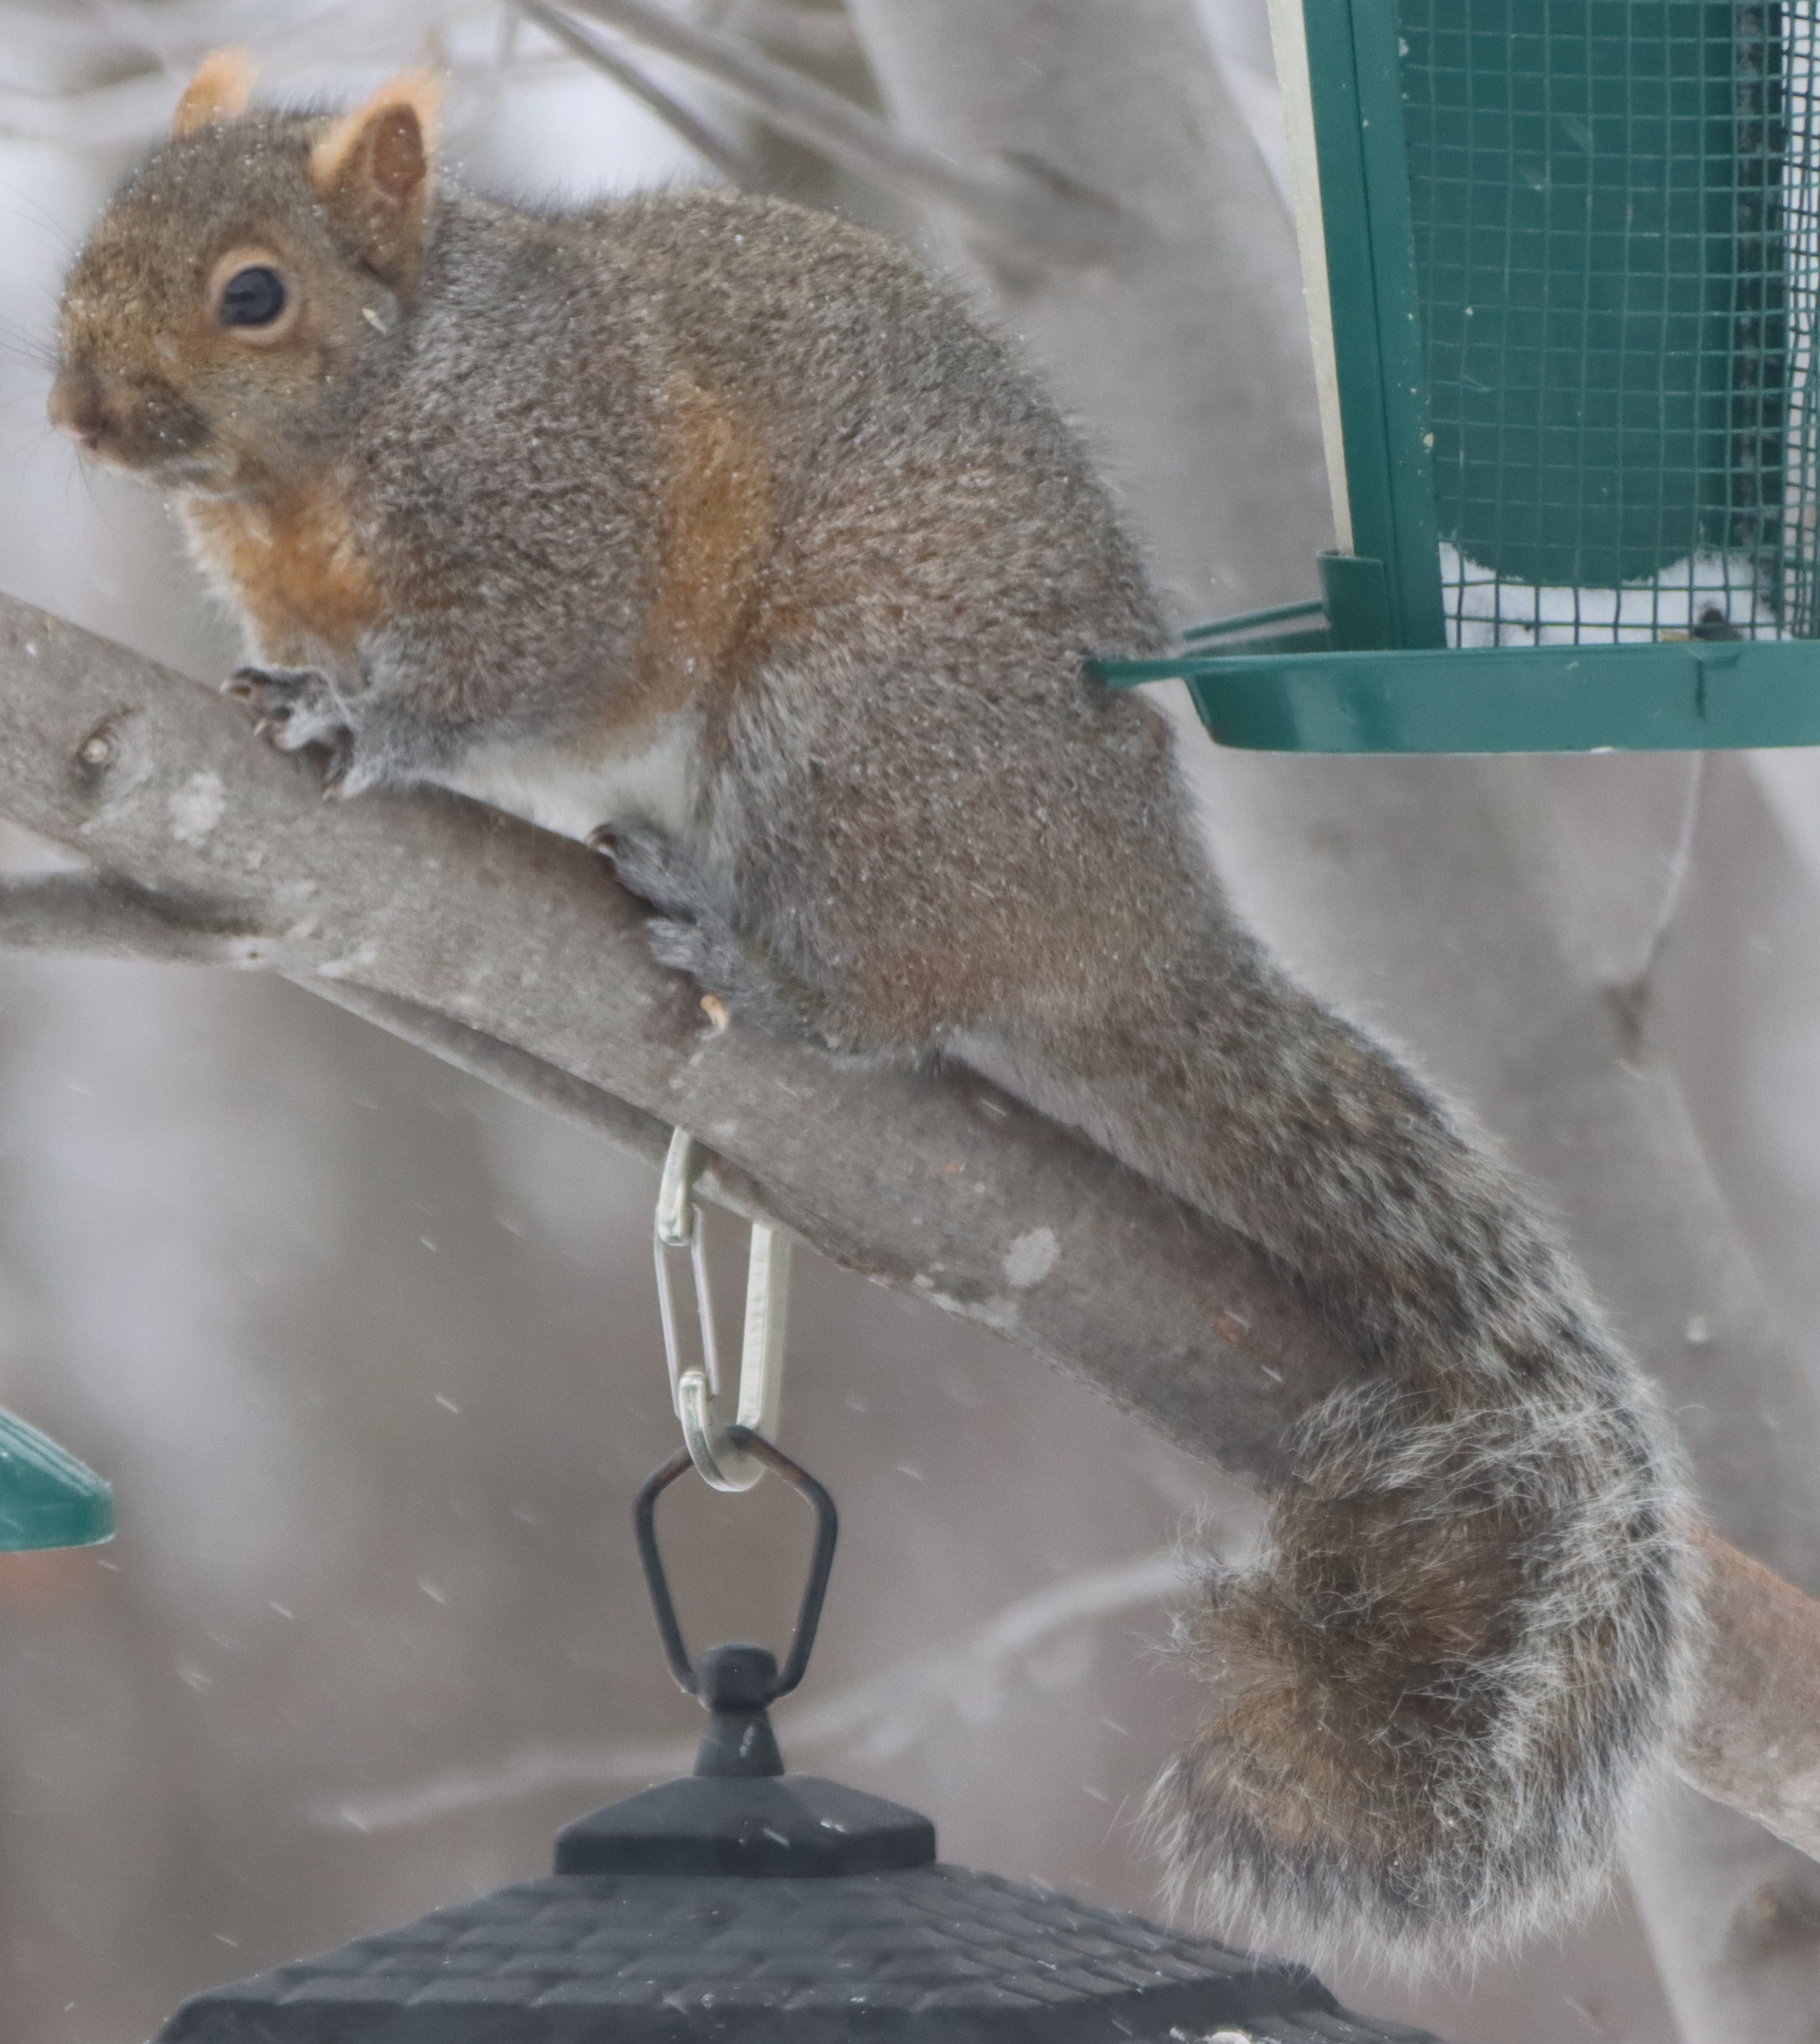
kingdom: Animalia
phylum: Chordata
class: Mammalia
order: Rodentia
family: Sciuridae
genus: Sciurus
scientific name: Sciurus carolinensis
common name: Eastern gray squirrel
